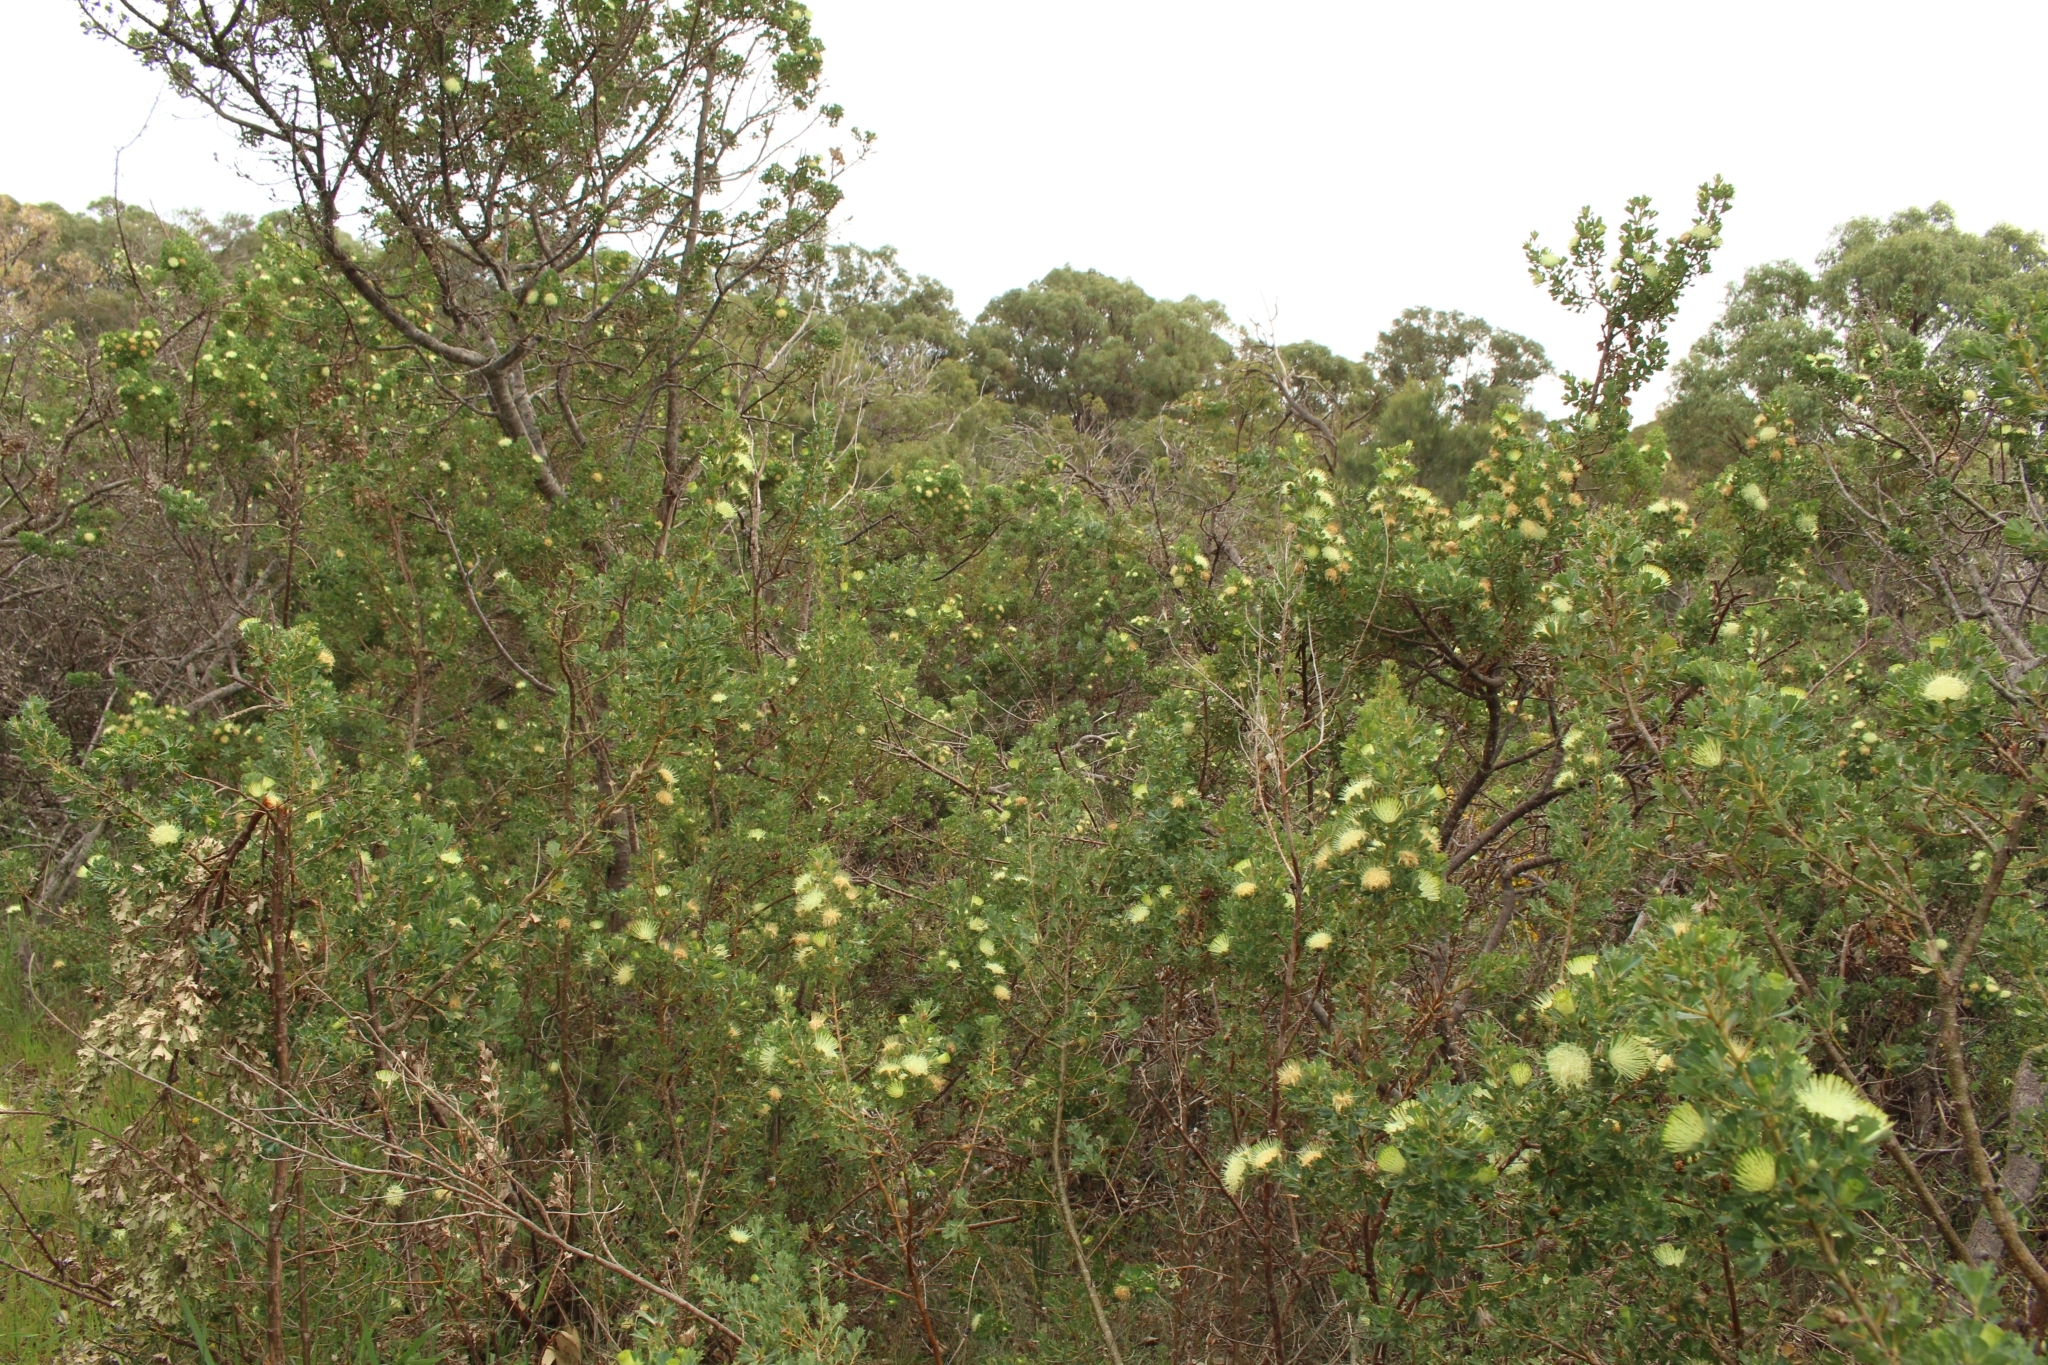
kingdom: Plantae
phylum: Tracheophyta
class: Magnoliopsida
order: Proteales
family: Proteaceae
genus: Banksia
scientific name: Banksia sessilis
